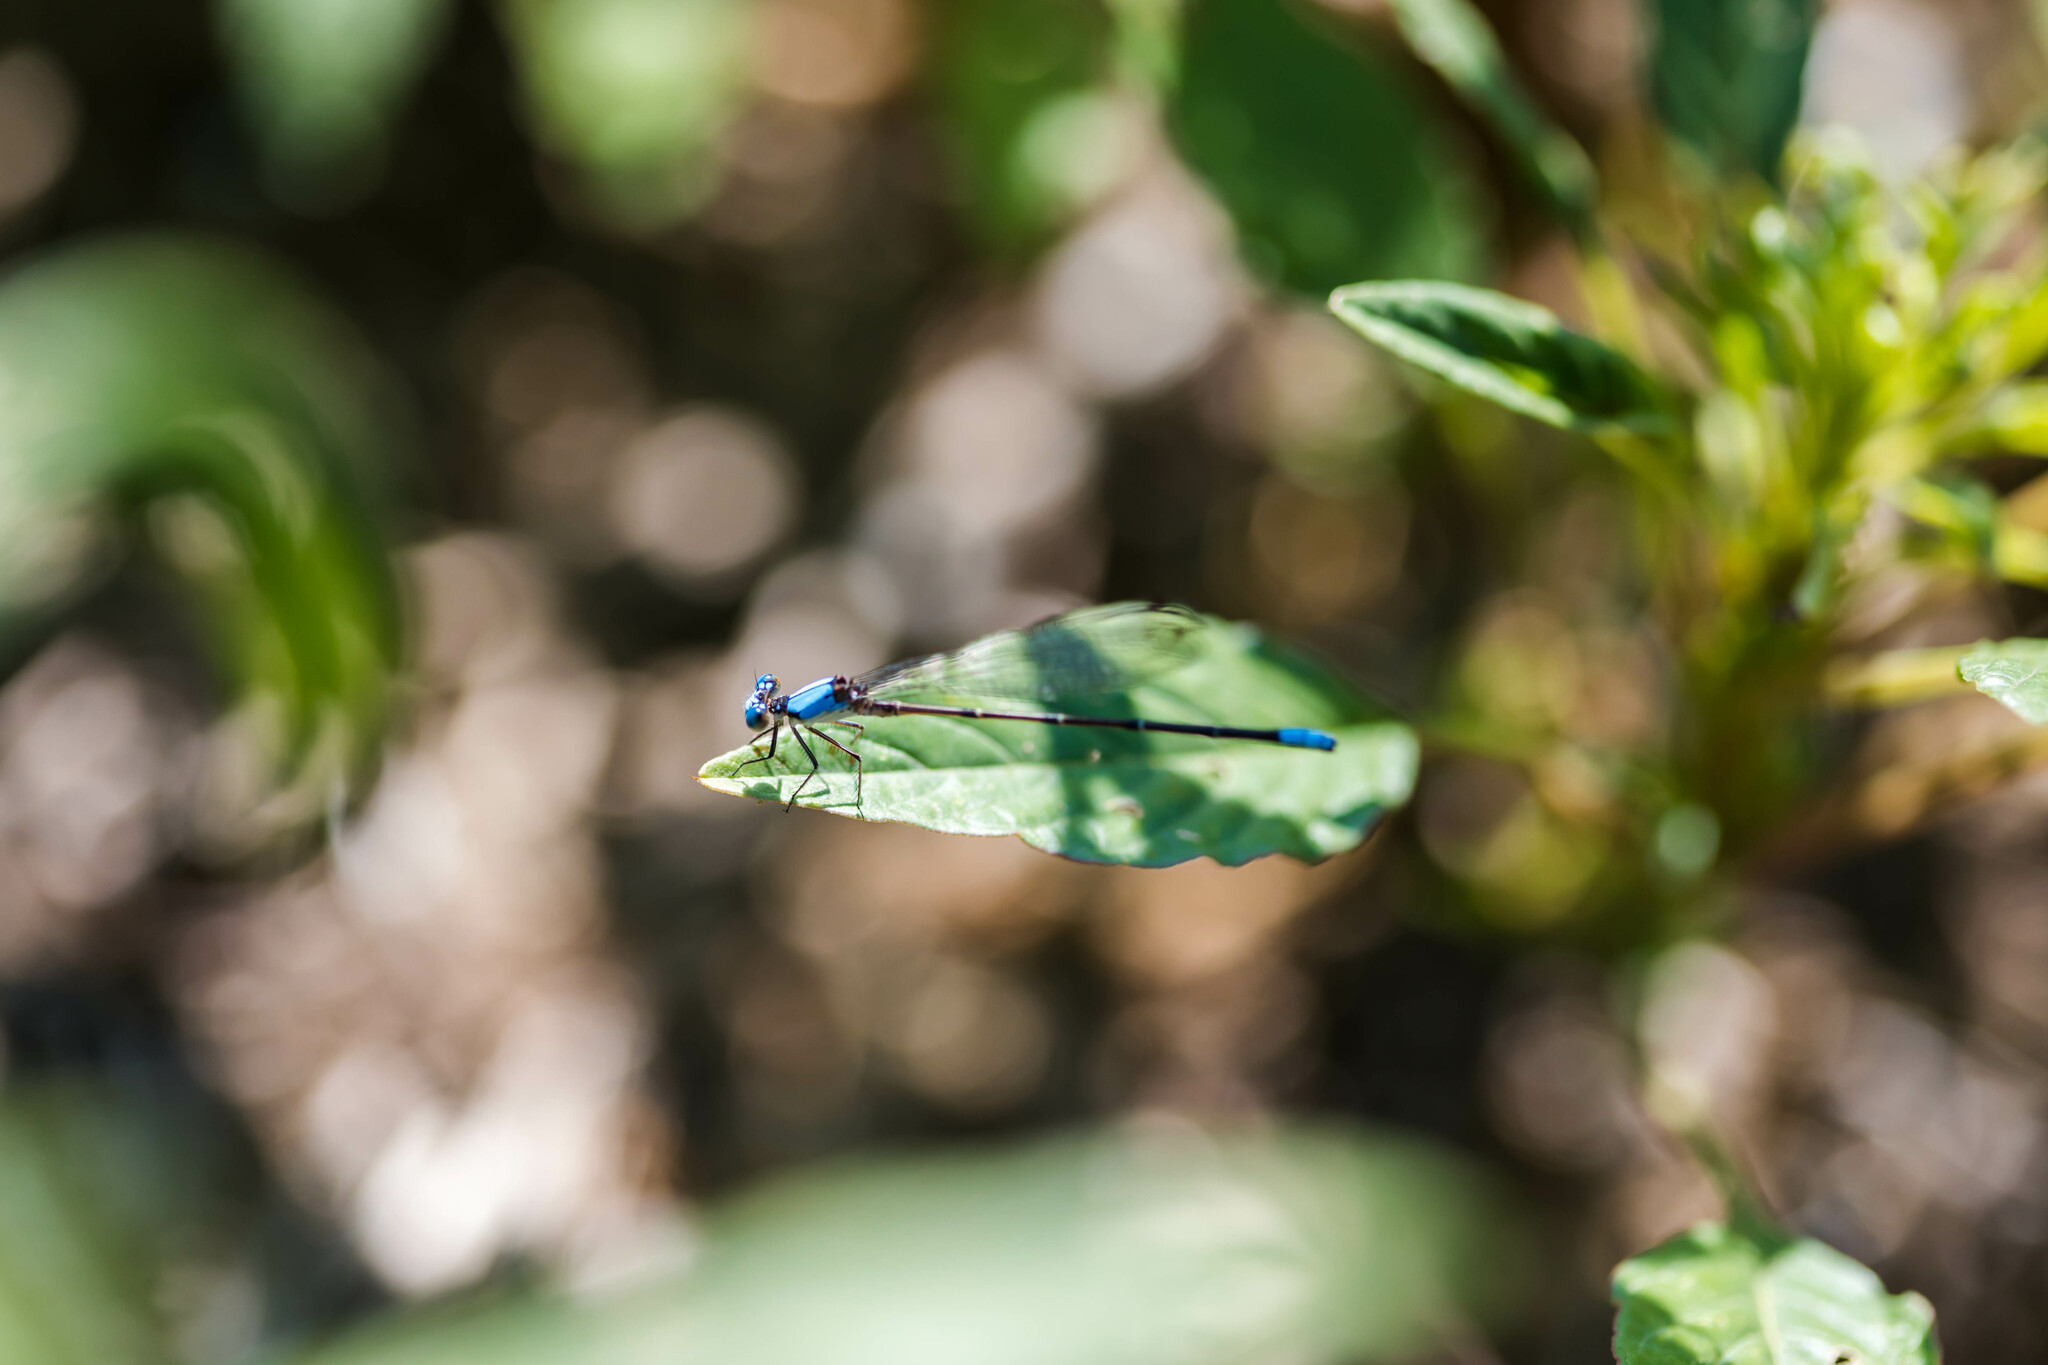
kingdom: Animalia
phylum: Arthropoda
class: Insecta
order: Odonata
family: Coenagrionidae
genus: Argia
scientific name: Argia apicalis
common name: Blue-fronted dancer
